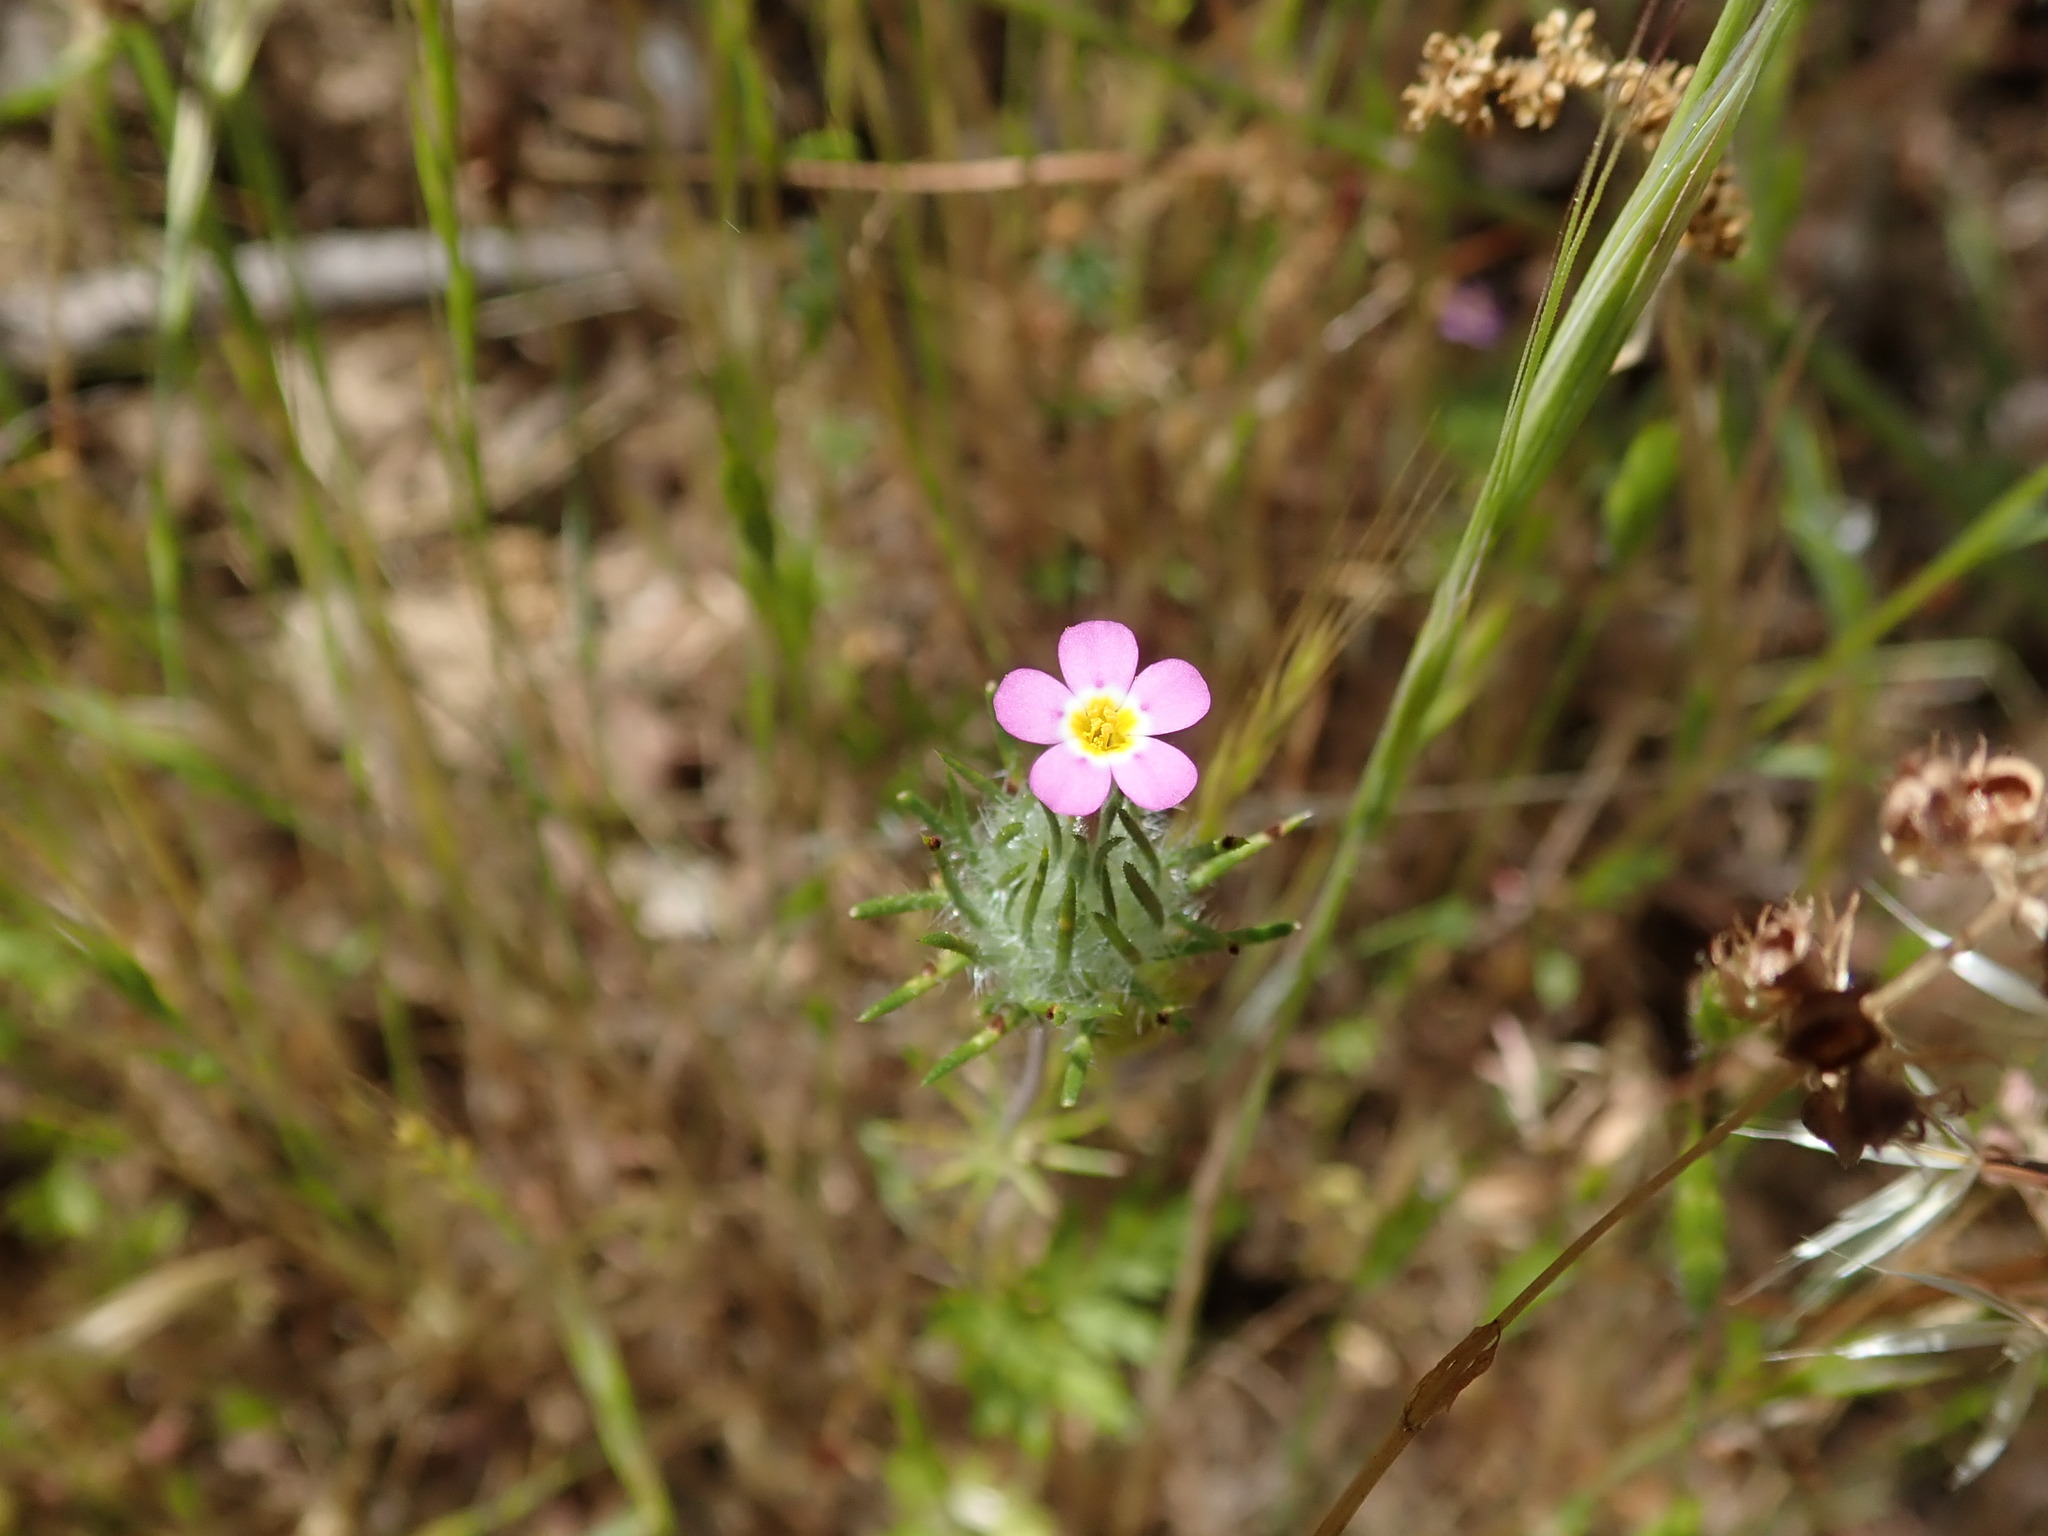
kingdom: Plantae
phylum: Tracheophyta
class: Magnoliopsida
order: Ericales
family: Polemoniaceae
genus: Leptosiphon
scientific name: Leptosiphon ciliatus
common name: Whiskerbrush
